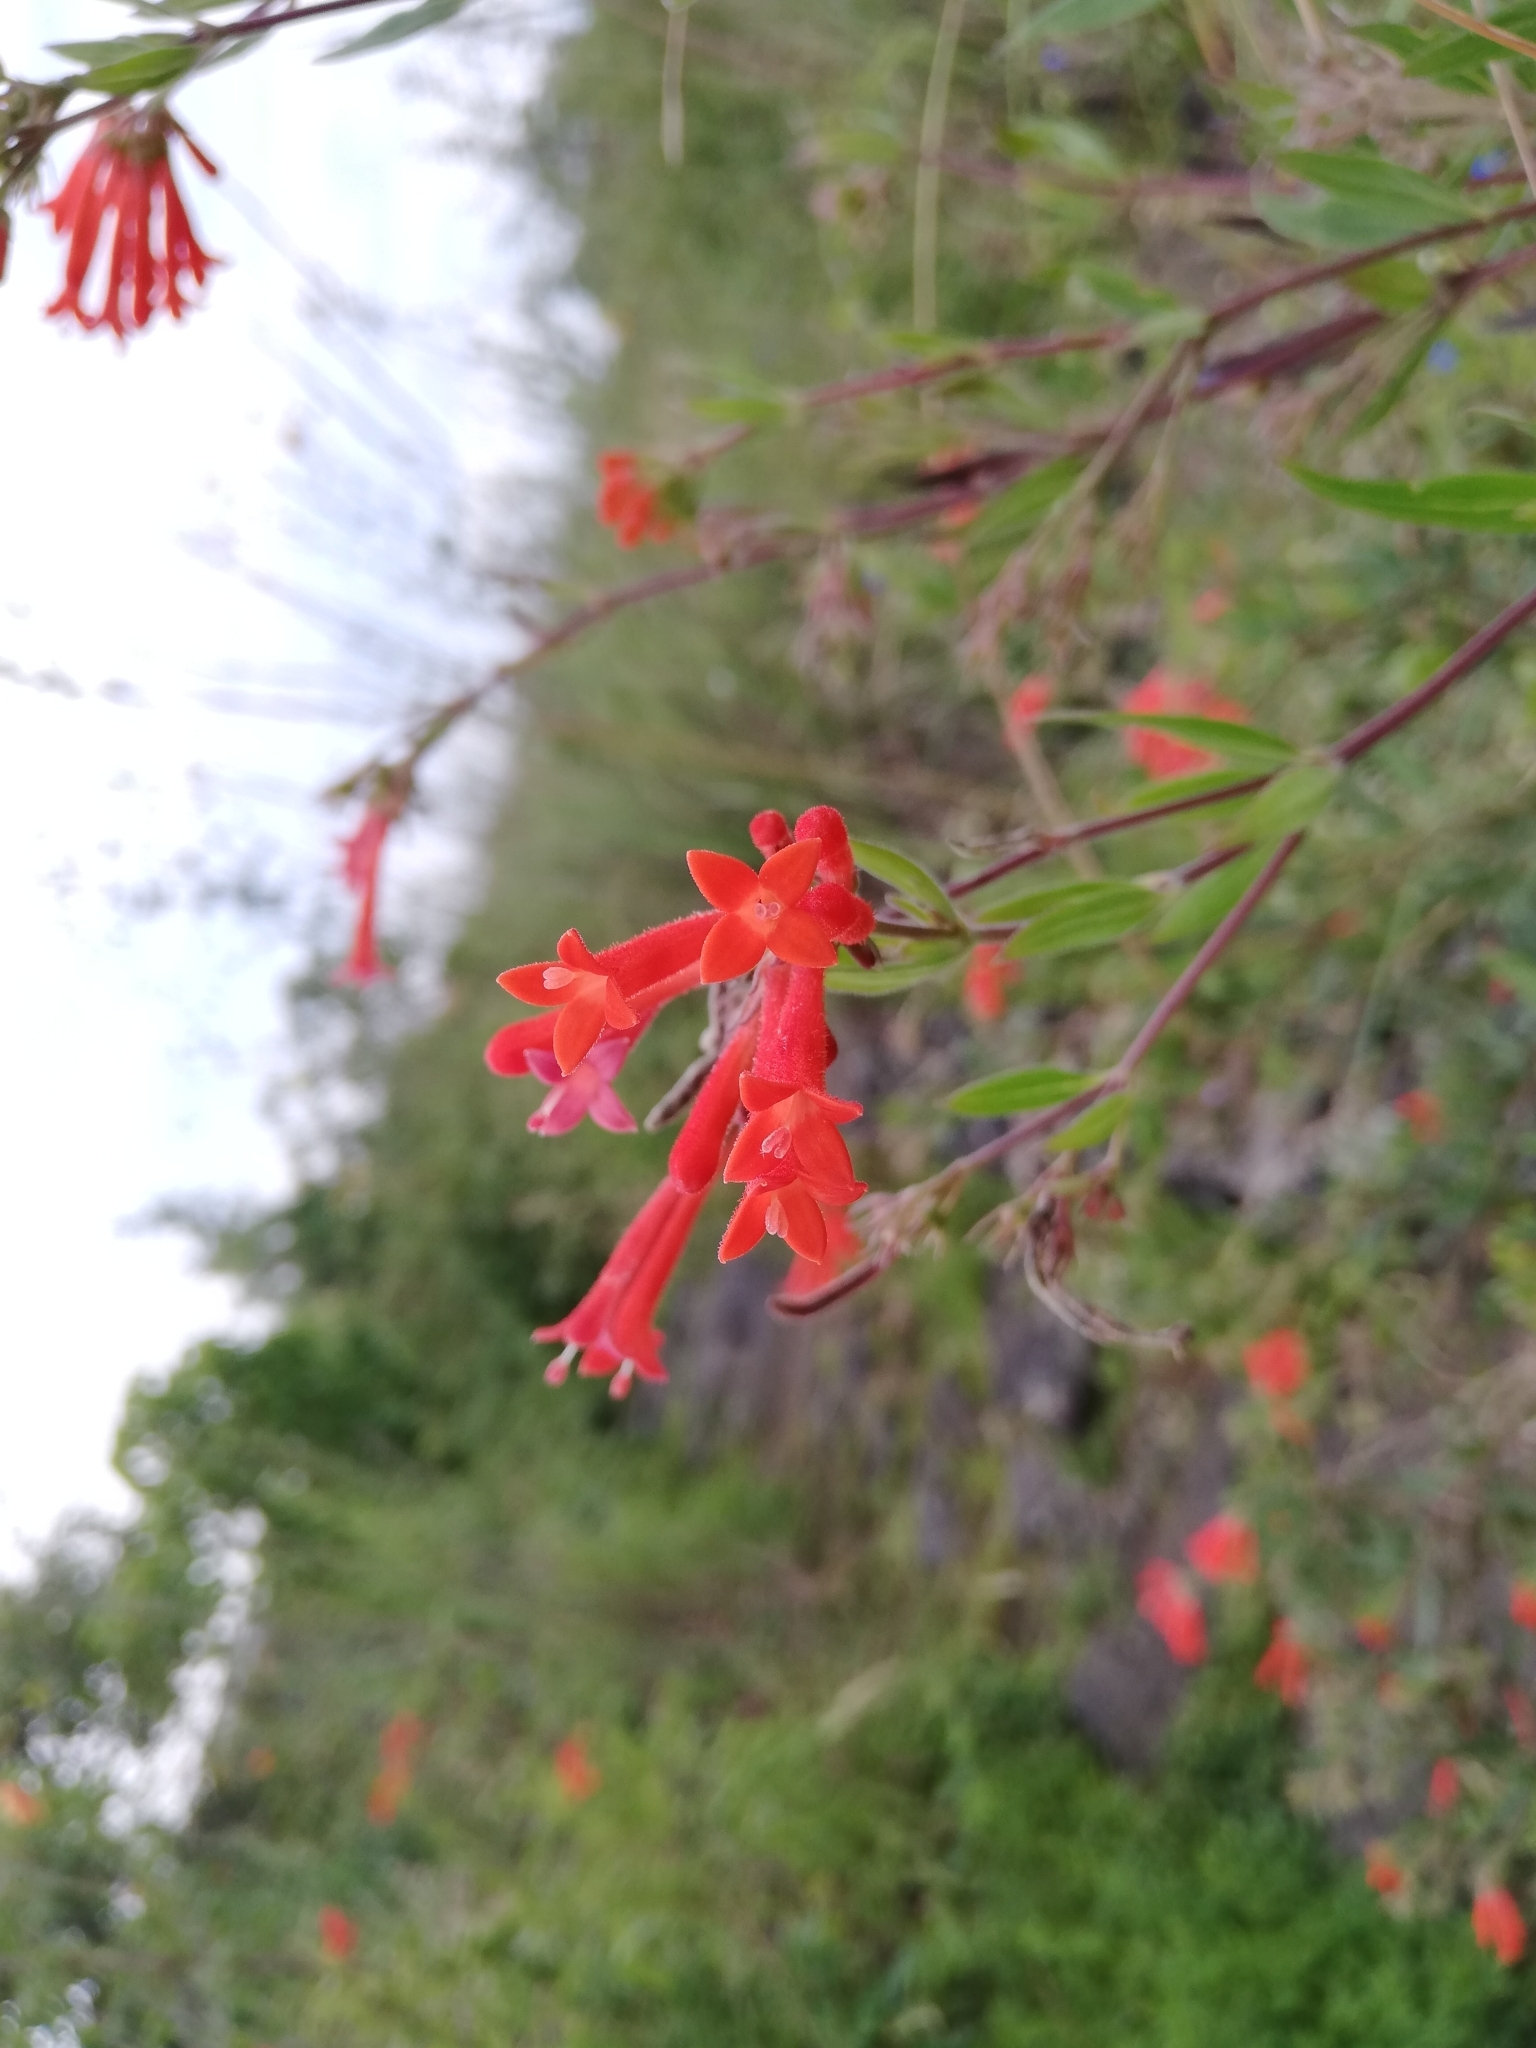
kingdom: Plantae
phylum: Tracheophyta
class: Magnoliopsida
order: Gentianales
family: Rubiaceae
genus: Bouvardia
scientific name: Bouvardia ternifolia
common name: Scarlet bouvardia
